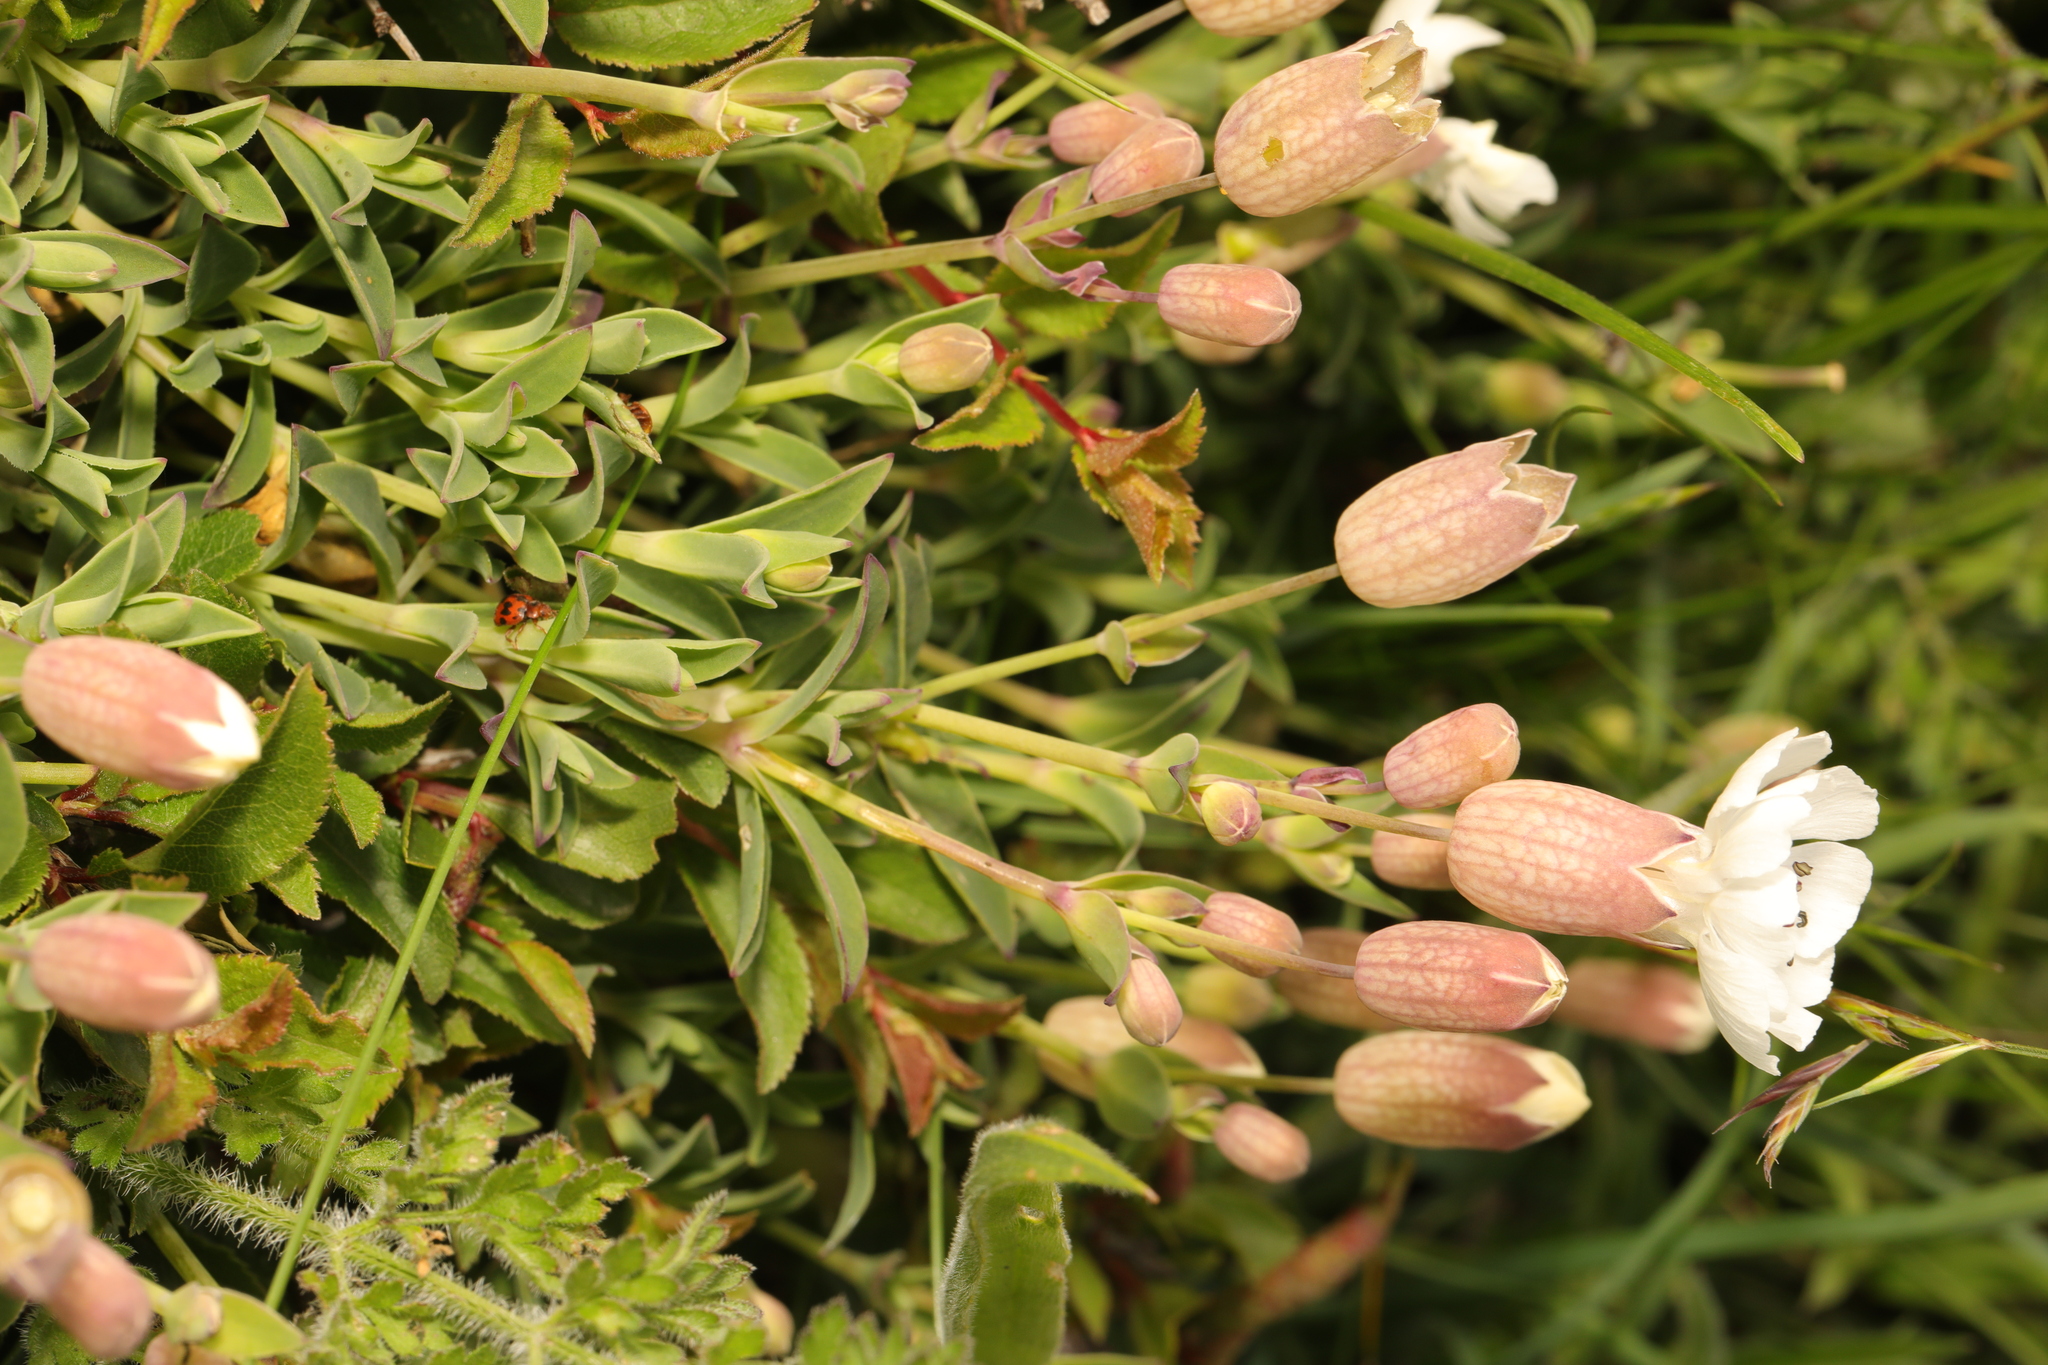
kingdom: Plantae
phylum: Tracheophyta
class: Magnoliopsida
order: Caryophyllales
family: Caryophyllaceae
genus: Silene
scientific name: Silene uniflora
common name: Sea campion
